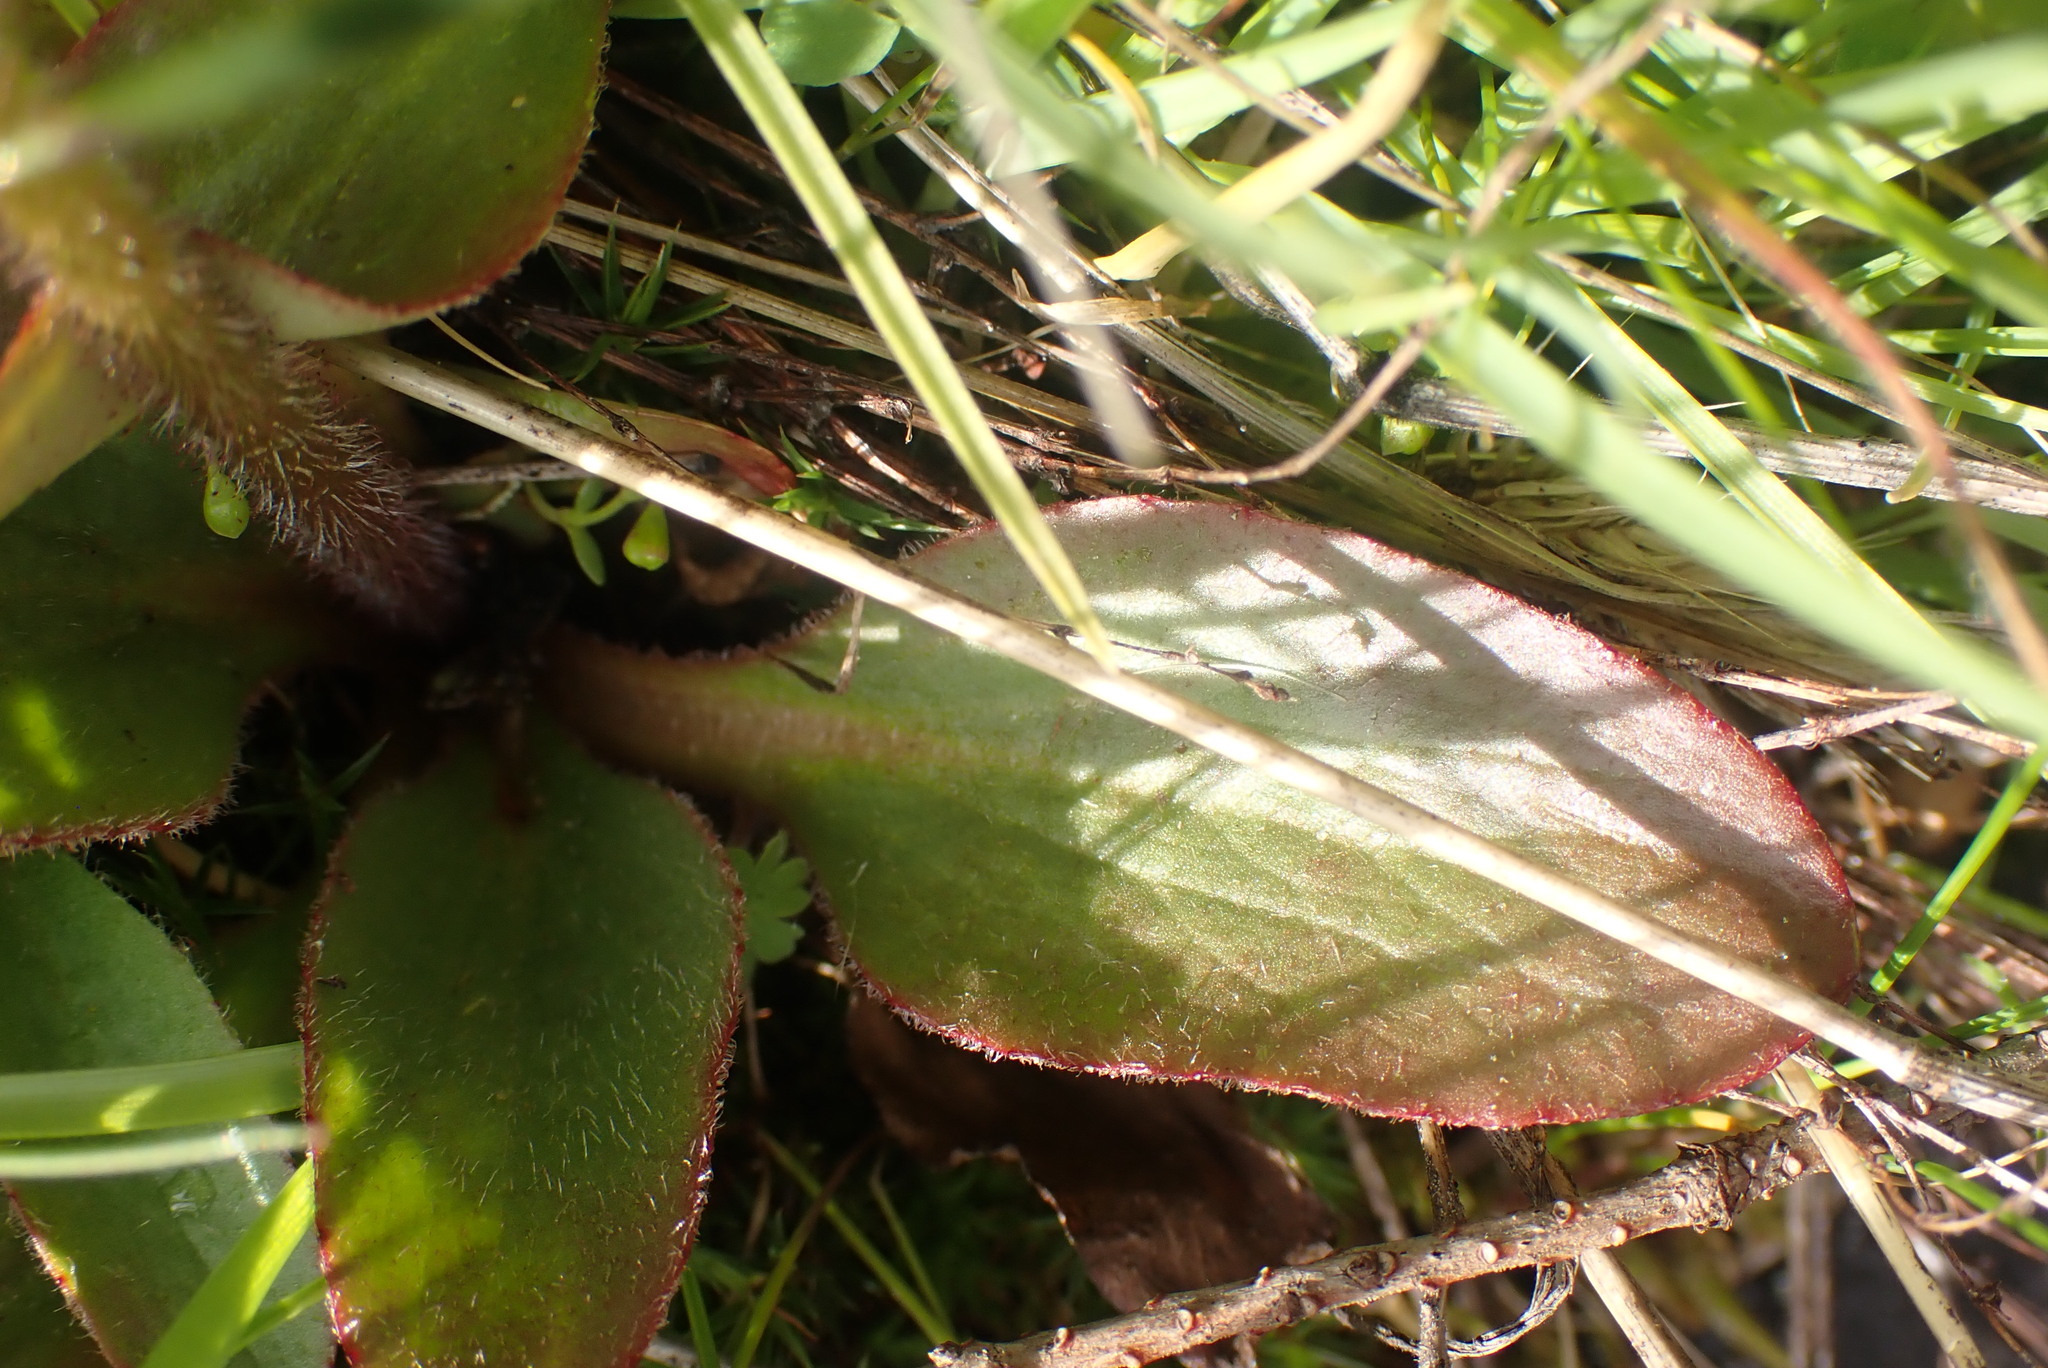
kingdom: Plantae
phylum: Tracheophyta
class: Magnoliopsida
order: Saxifragales
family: Saxifragaceae
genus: Micranthes
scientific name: Micranthes integrifolia
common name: Wholeleaf saxifrage
